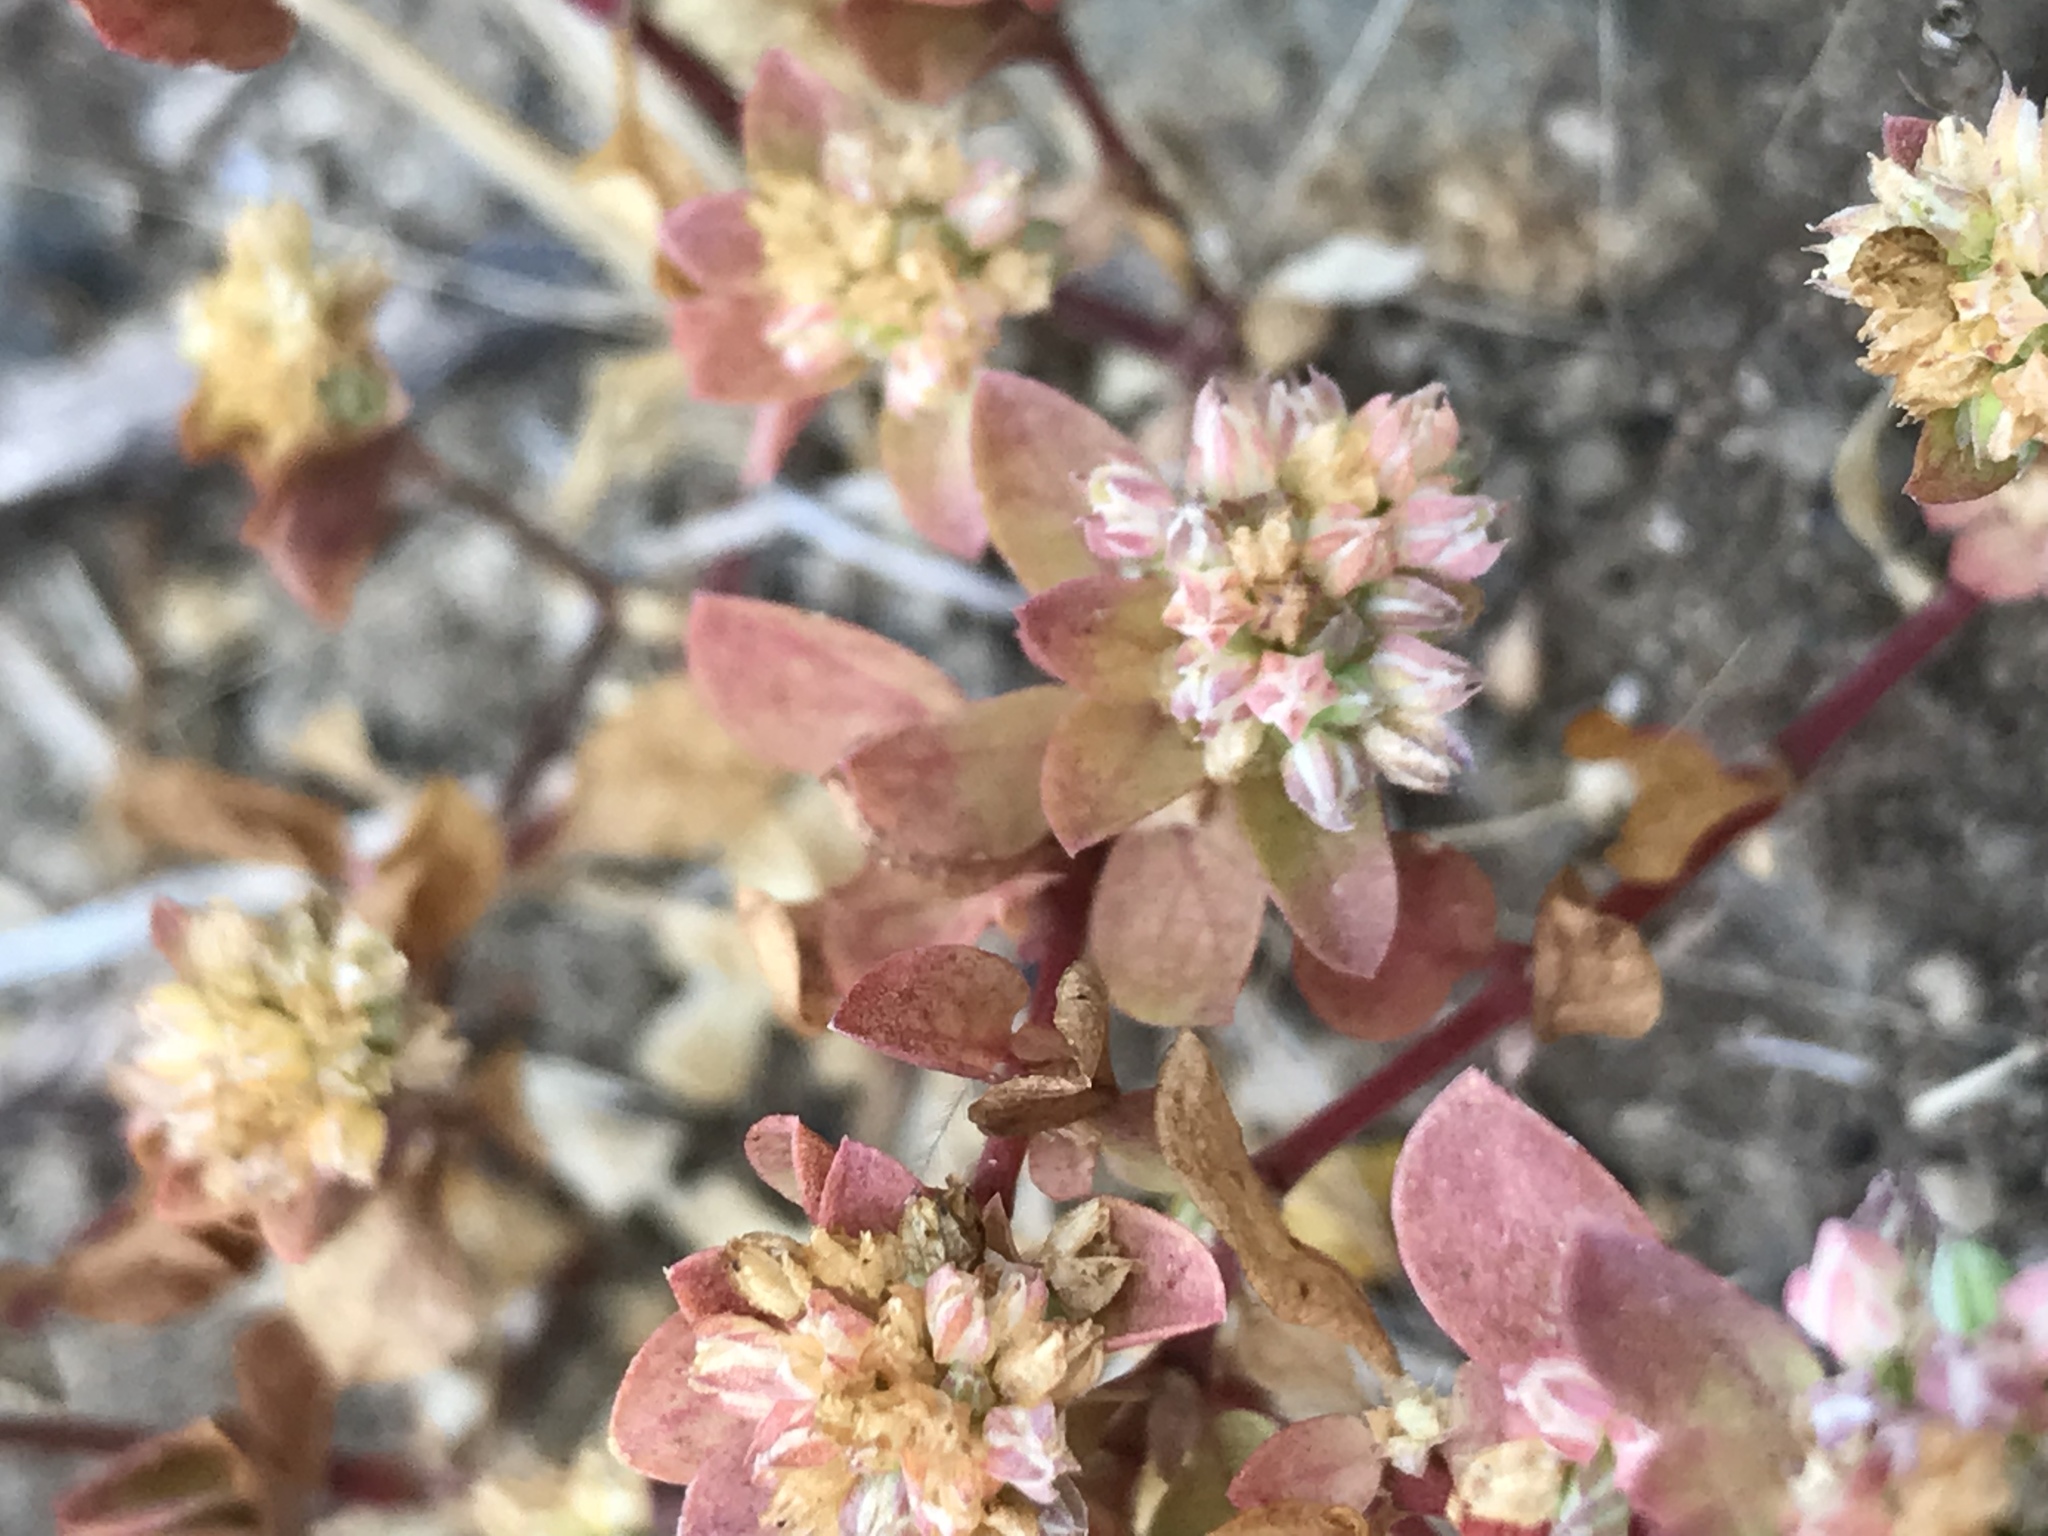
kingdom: Plantae
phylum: Tracheophyta
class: Magnoliopsida
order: Caryophyllales
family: Caryophyllaceae
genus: Polycarpon
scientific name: Polycarpon tetraphyllum
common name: Four-leaved all-seed
